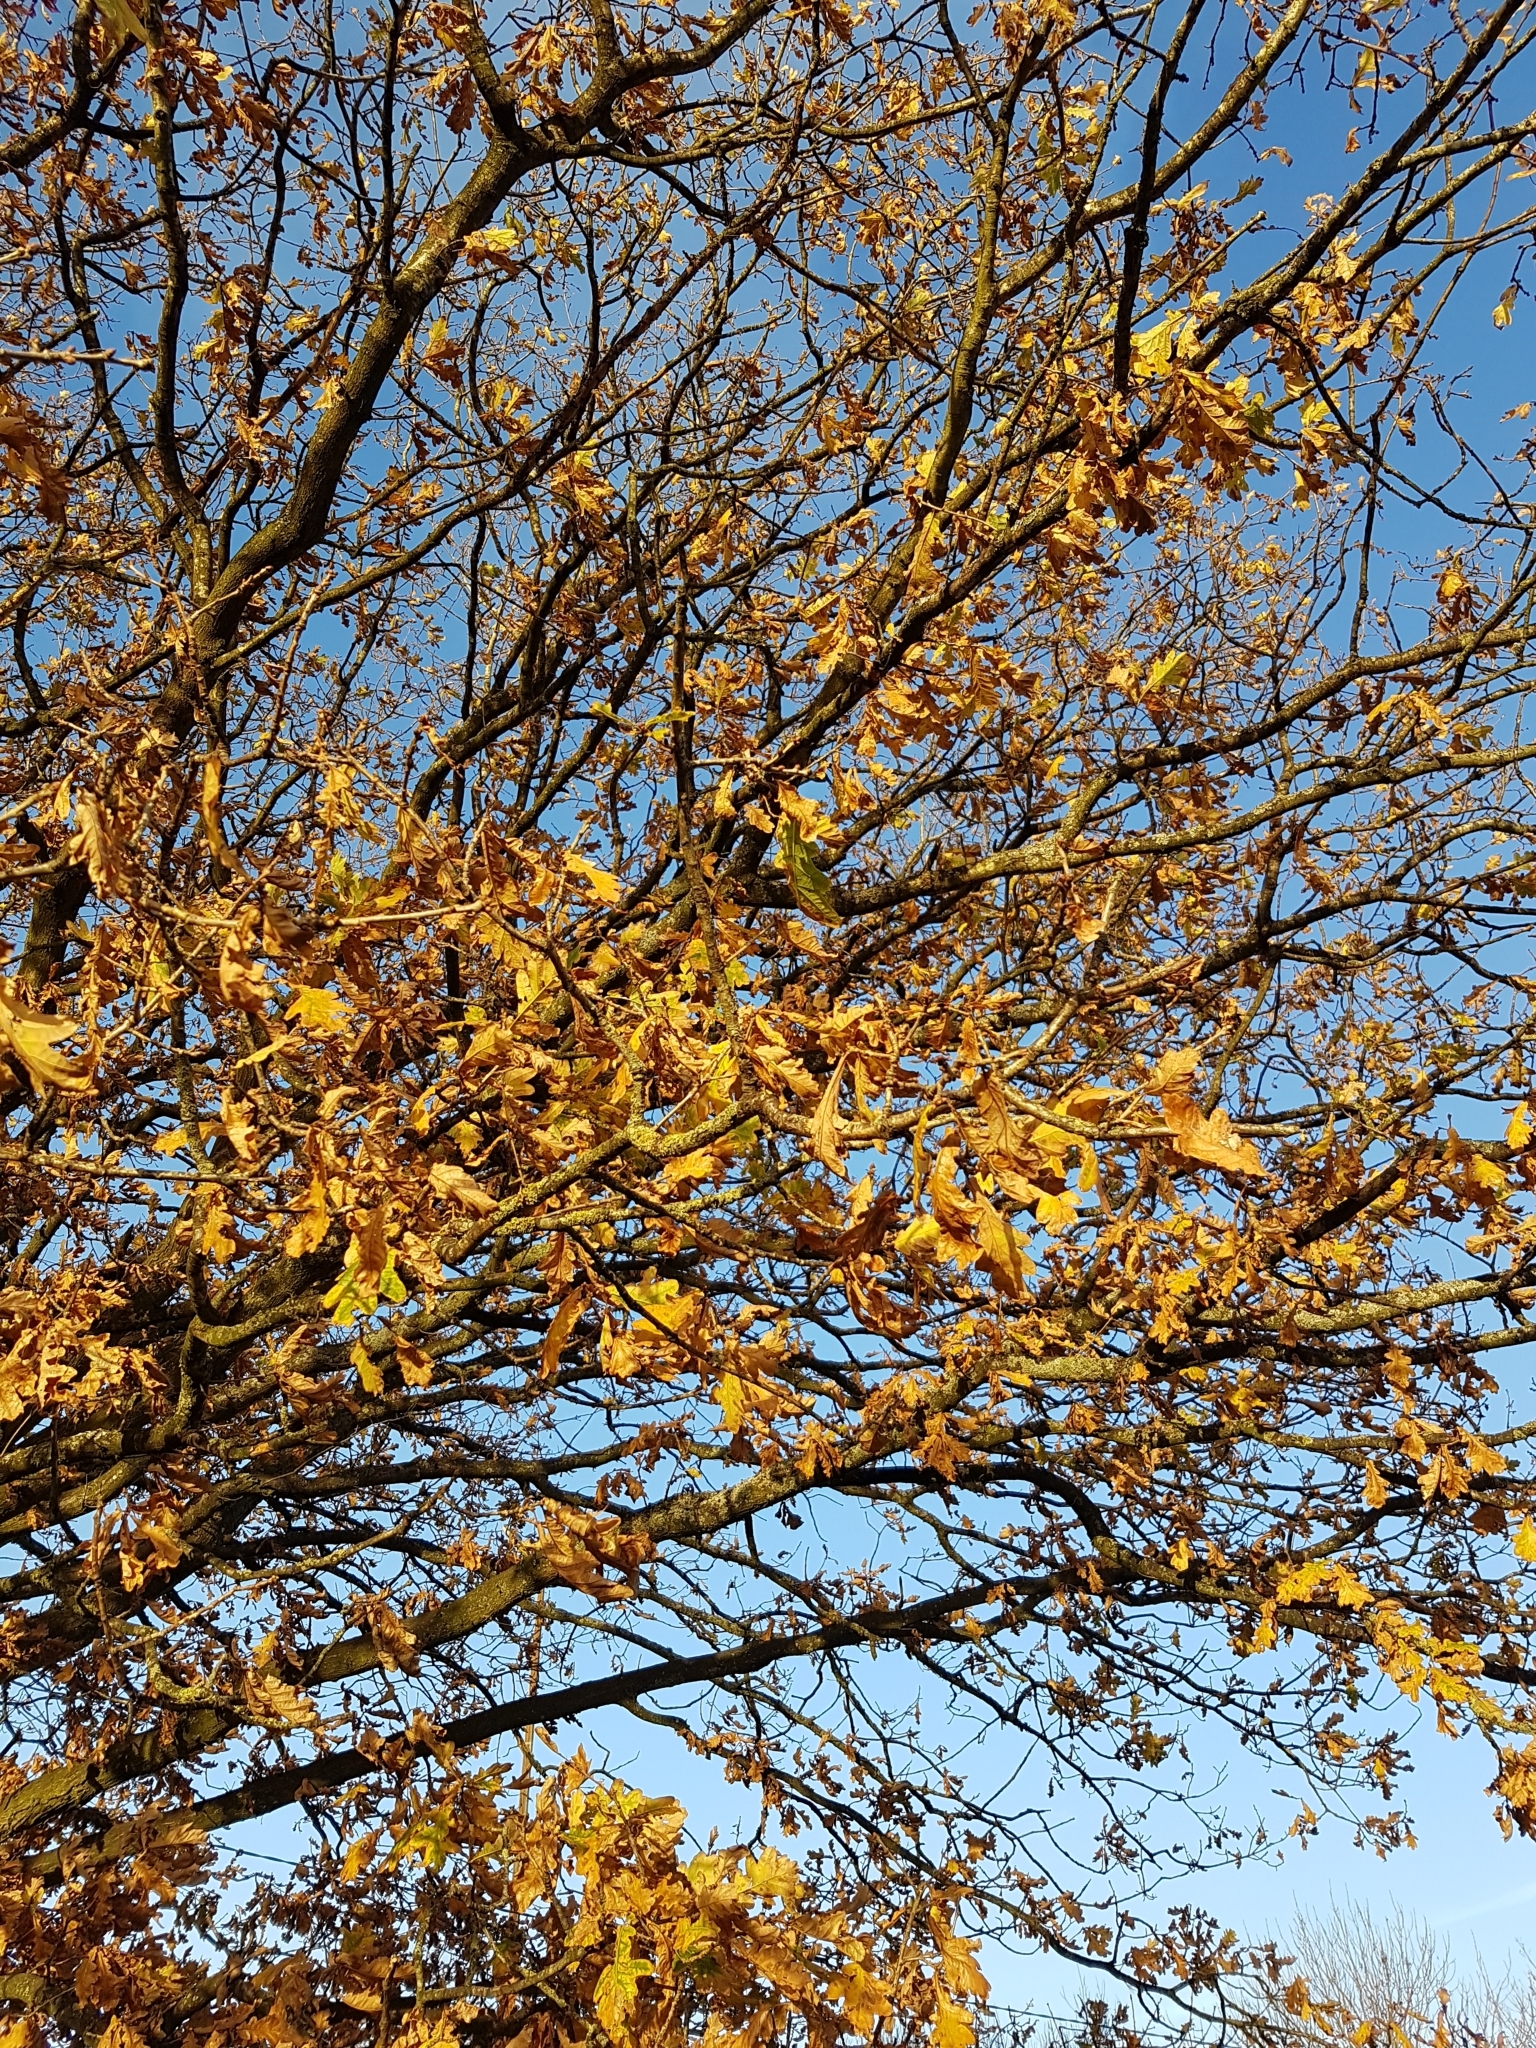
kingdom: Plantae
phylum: Tracheophyta
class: Magnoliopsida
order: Fagales
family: Fagaceae
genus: Quercus
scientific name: Quercus robur
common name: Pedunculate oak
